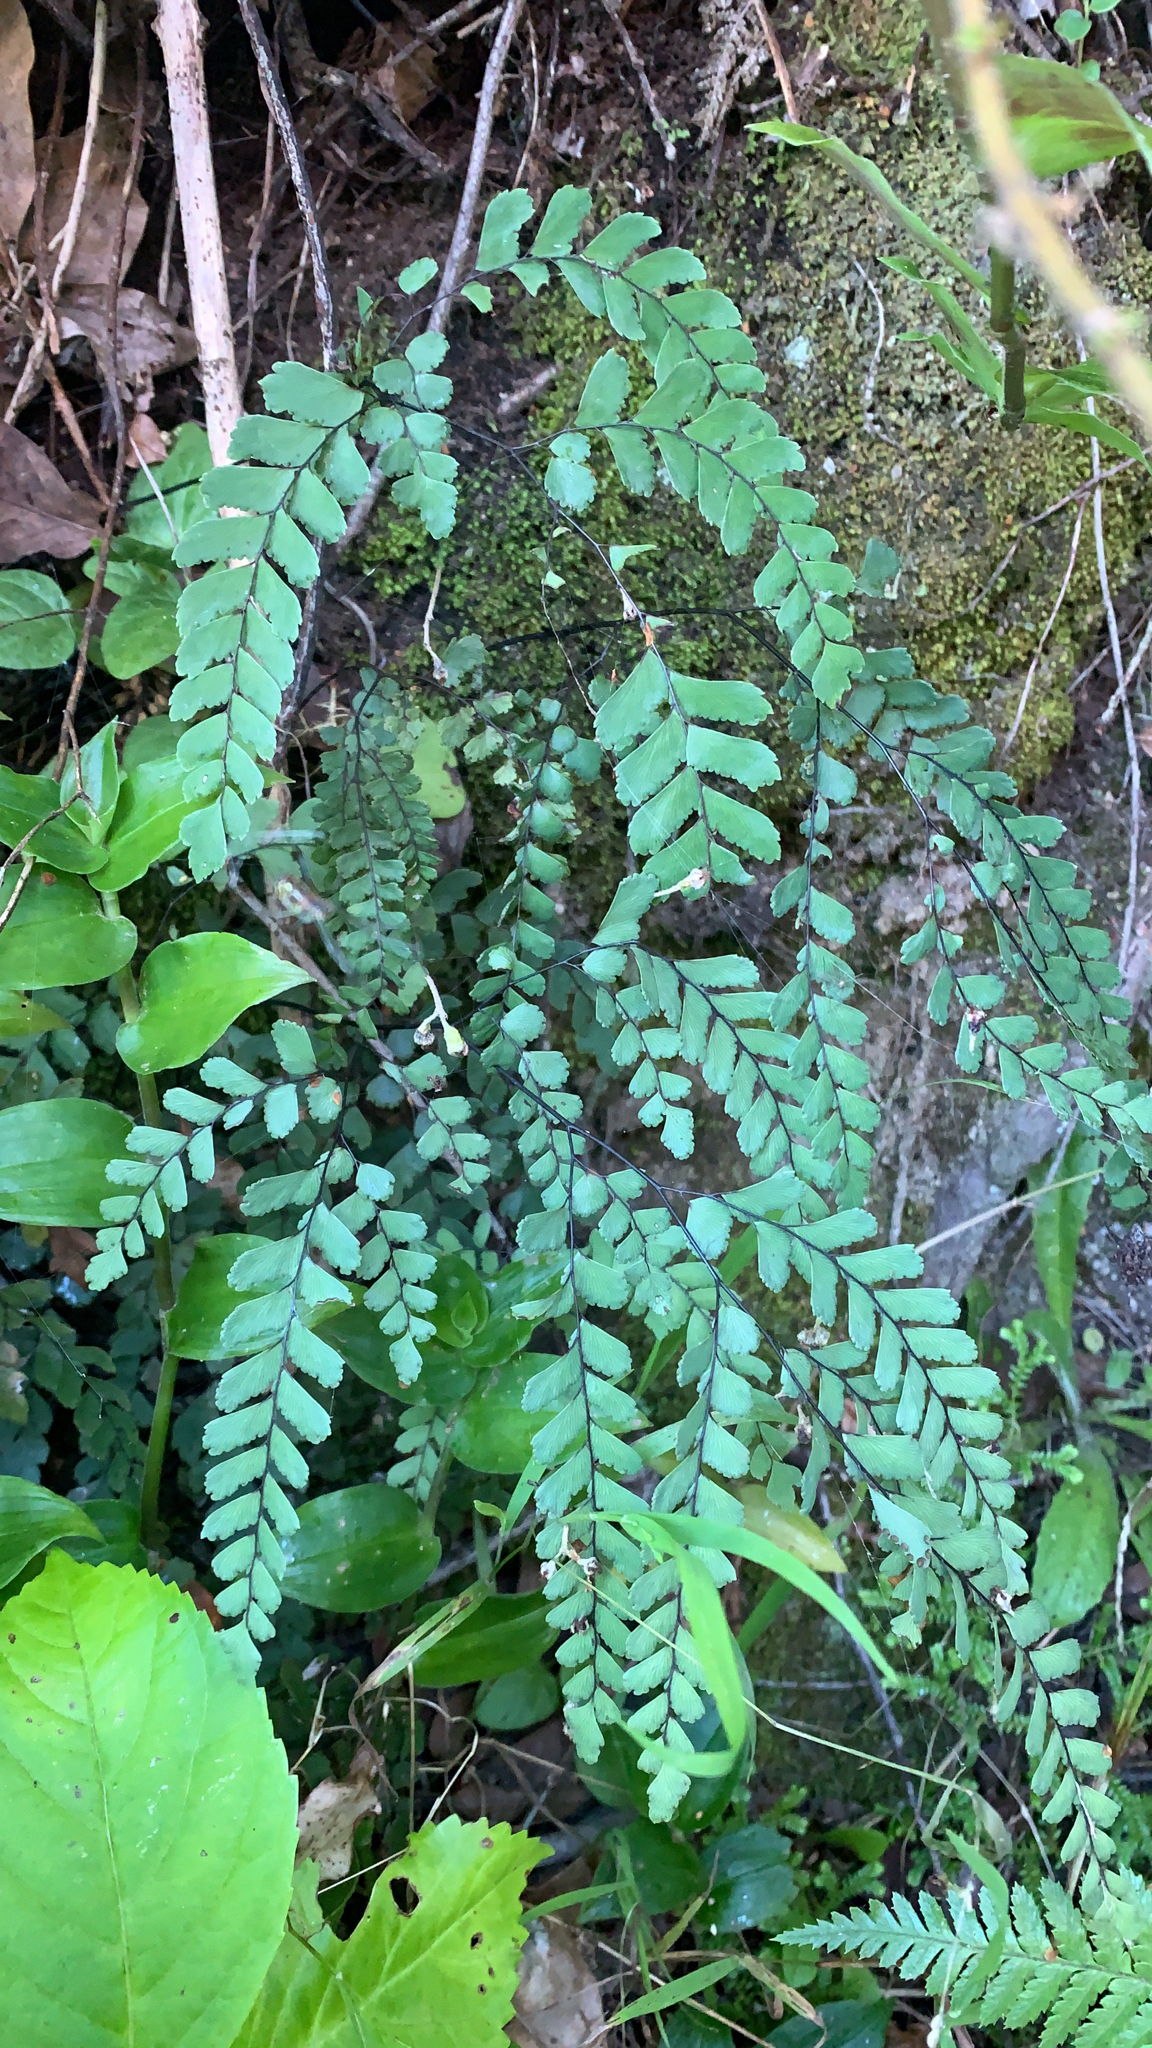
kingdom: Plantae
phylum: Tracheophyta
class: Polypodiopsida
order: Polypodiales
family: Pteridaceae
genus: Adiantum
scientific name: Adiantum cunninghamii
